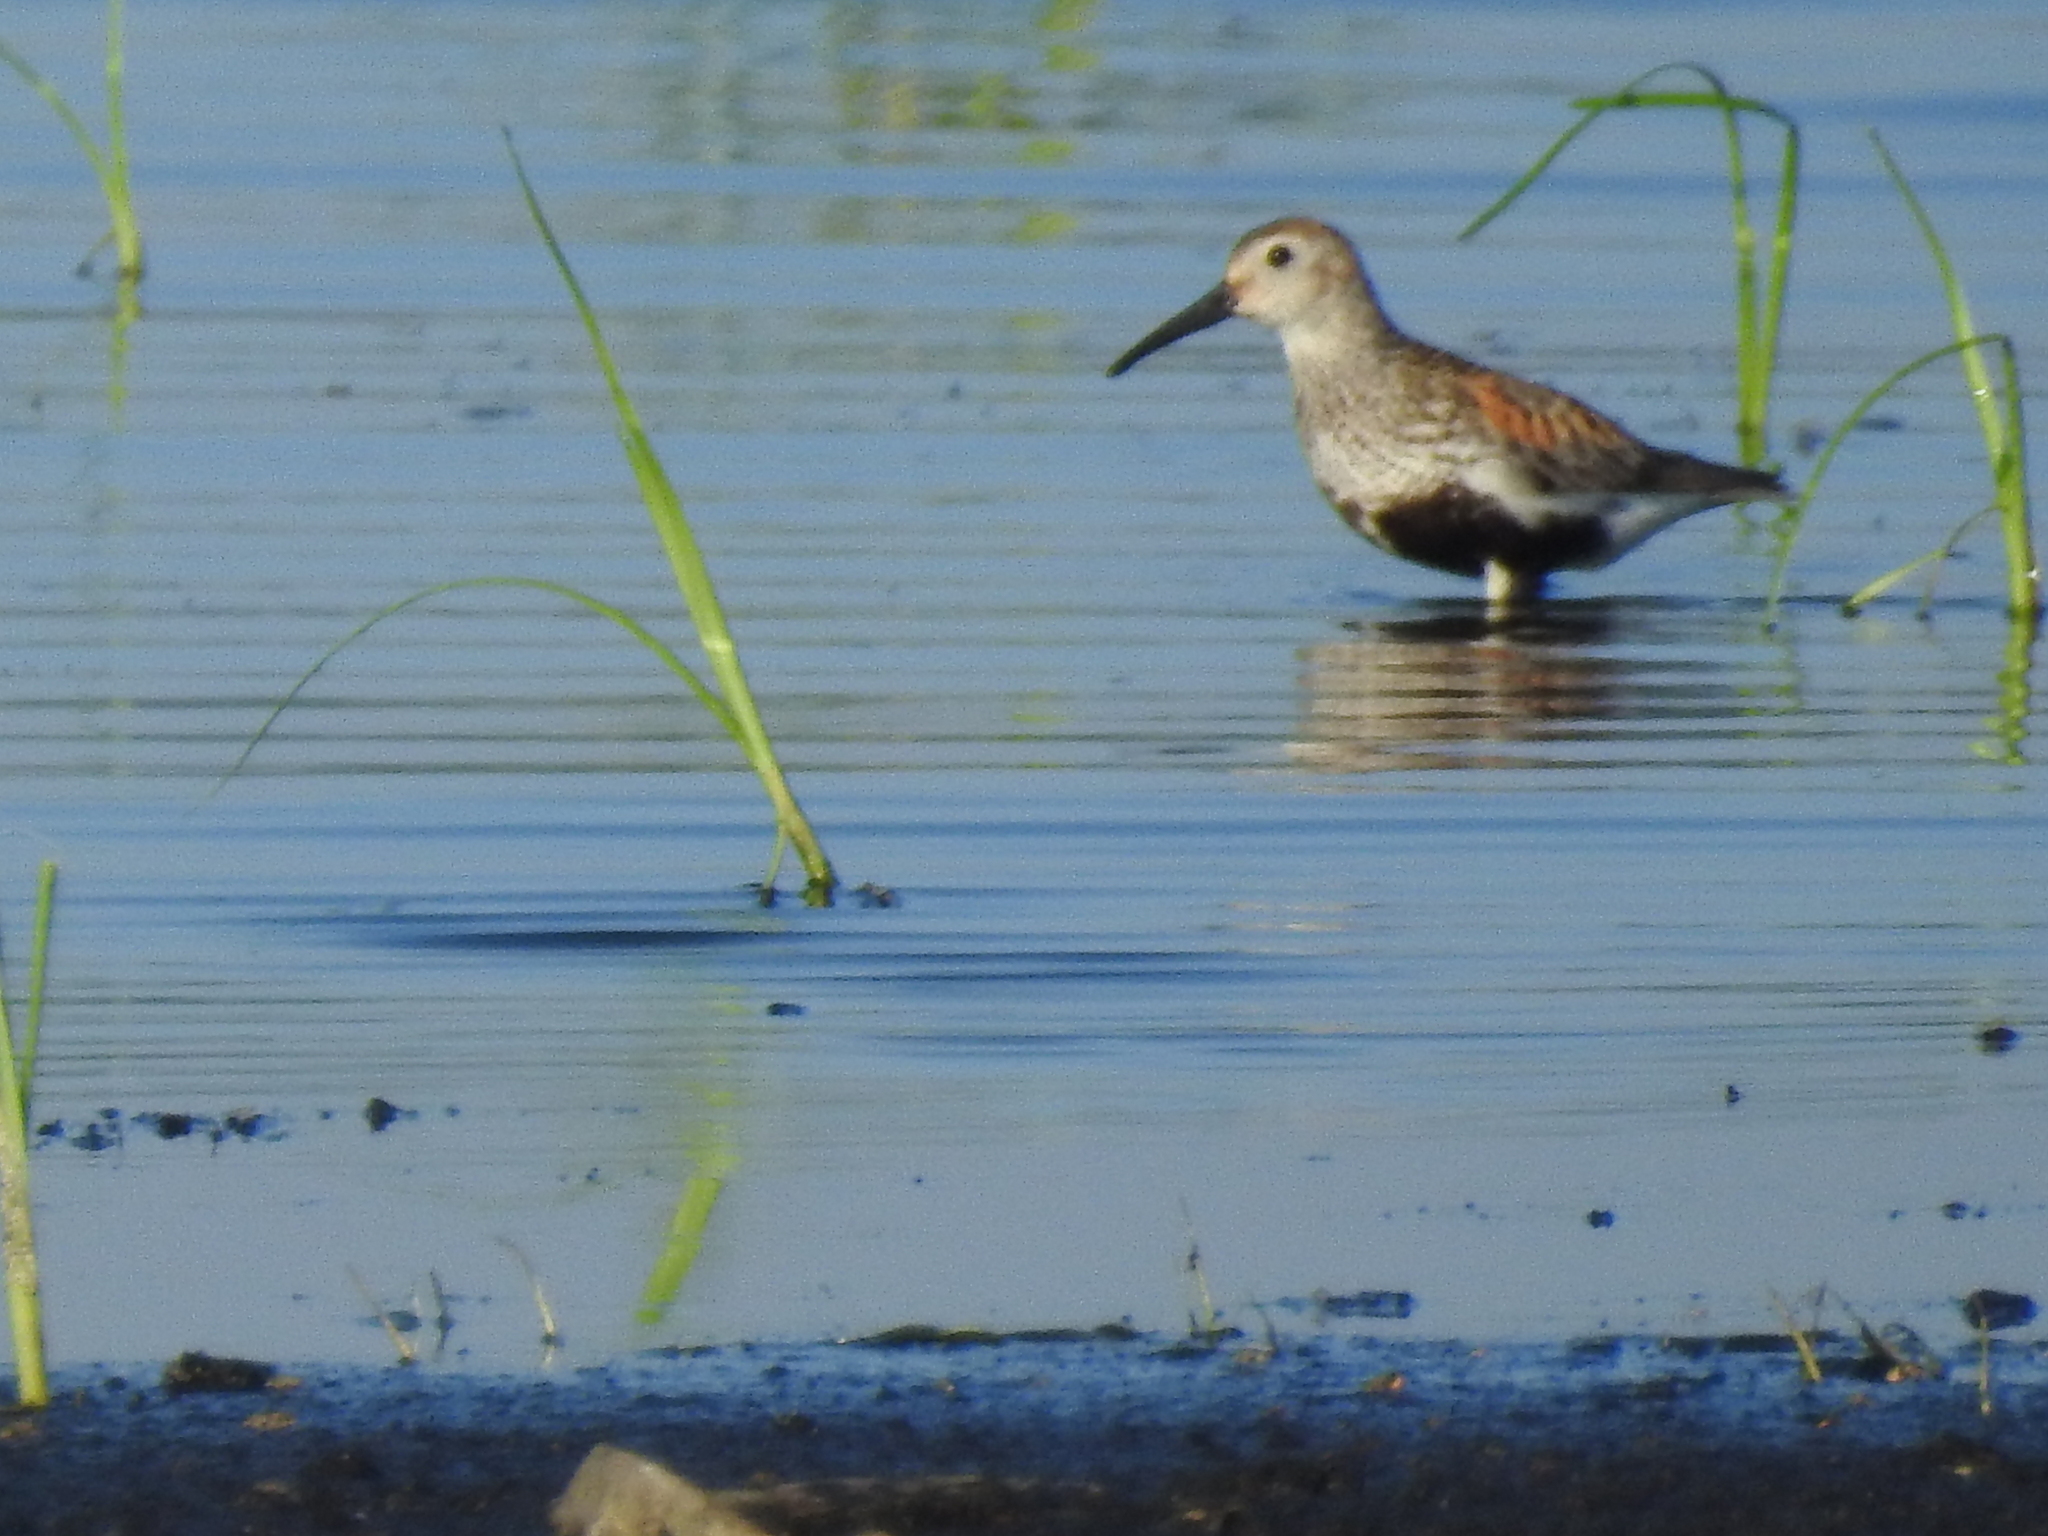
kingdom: Animalia
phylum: Chordata
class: Aves
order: Charadriiformes
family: Scolopacidae
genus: Calidris
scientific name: Calidris alpina
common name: Dunlin
